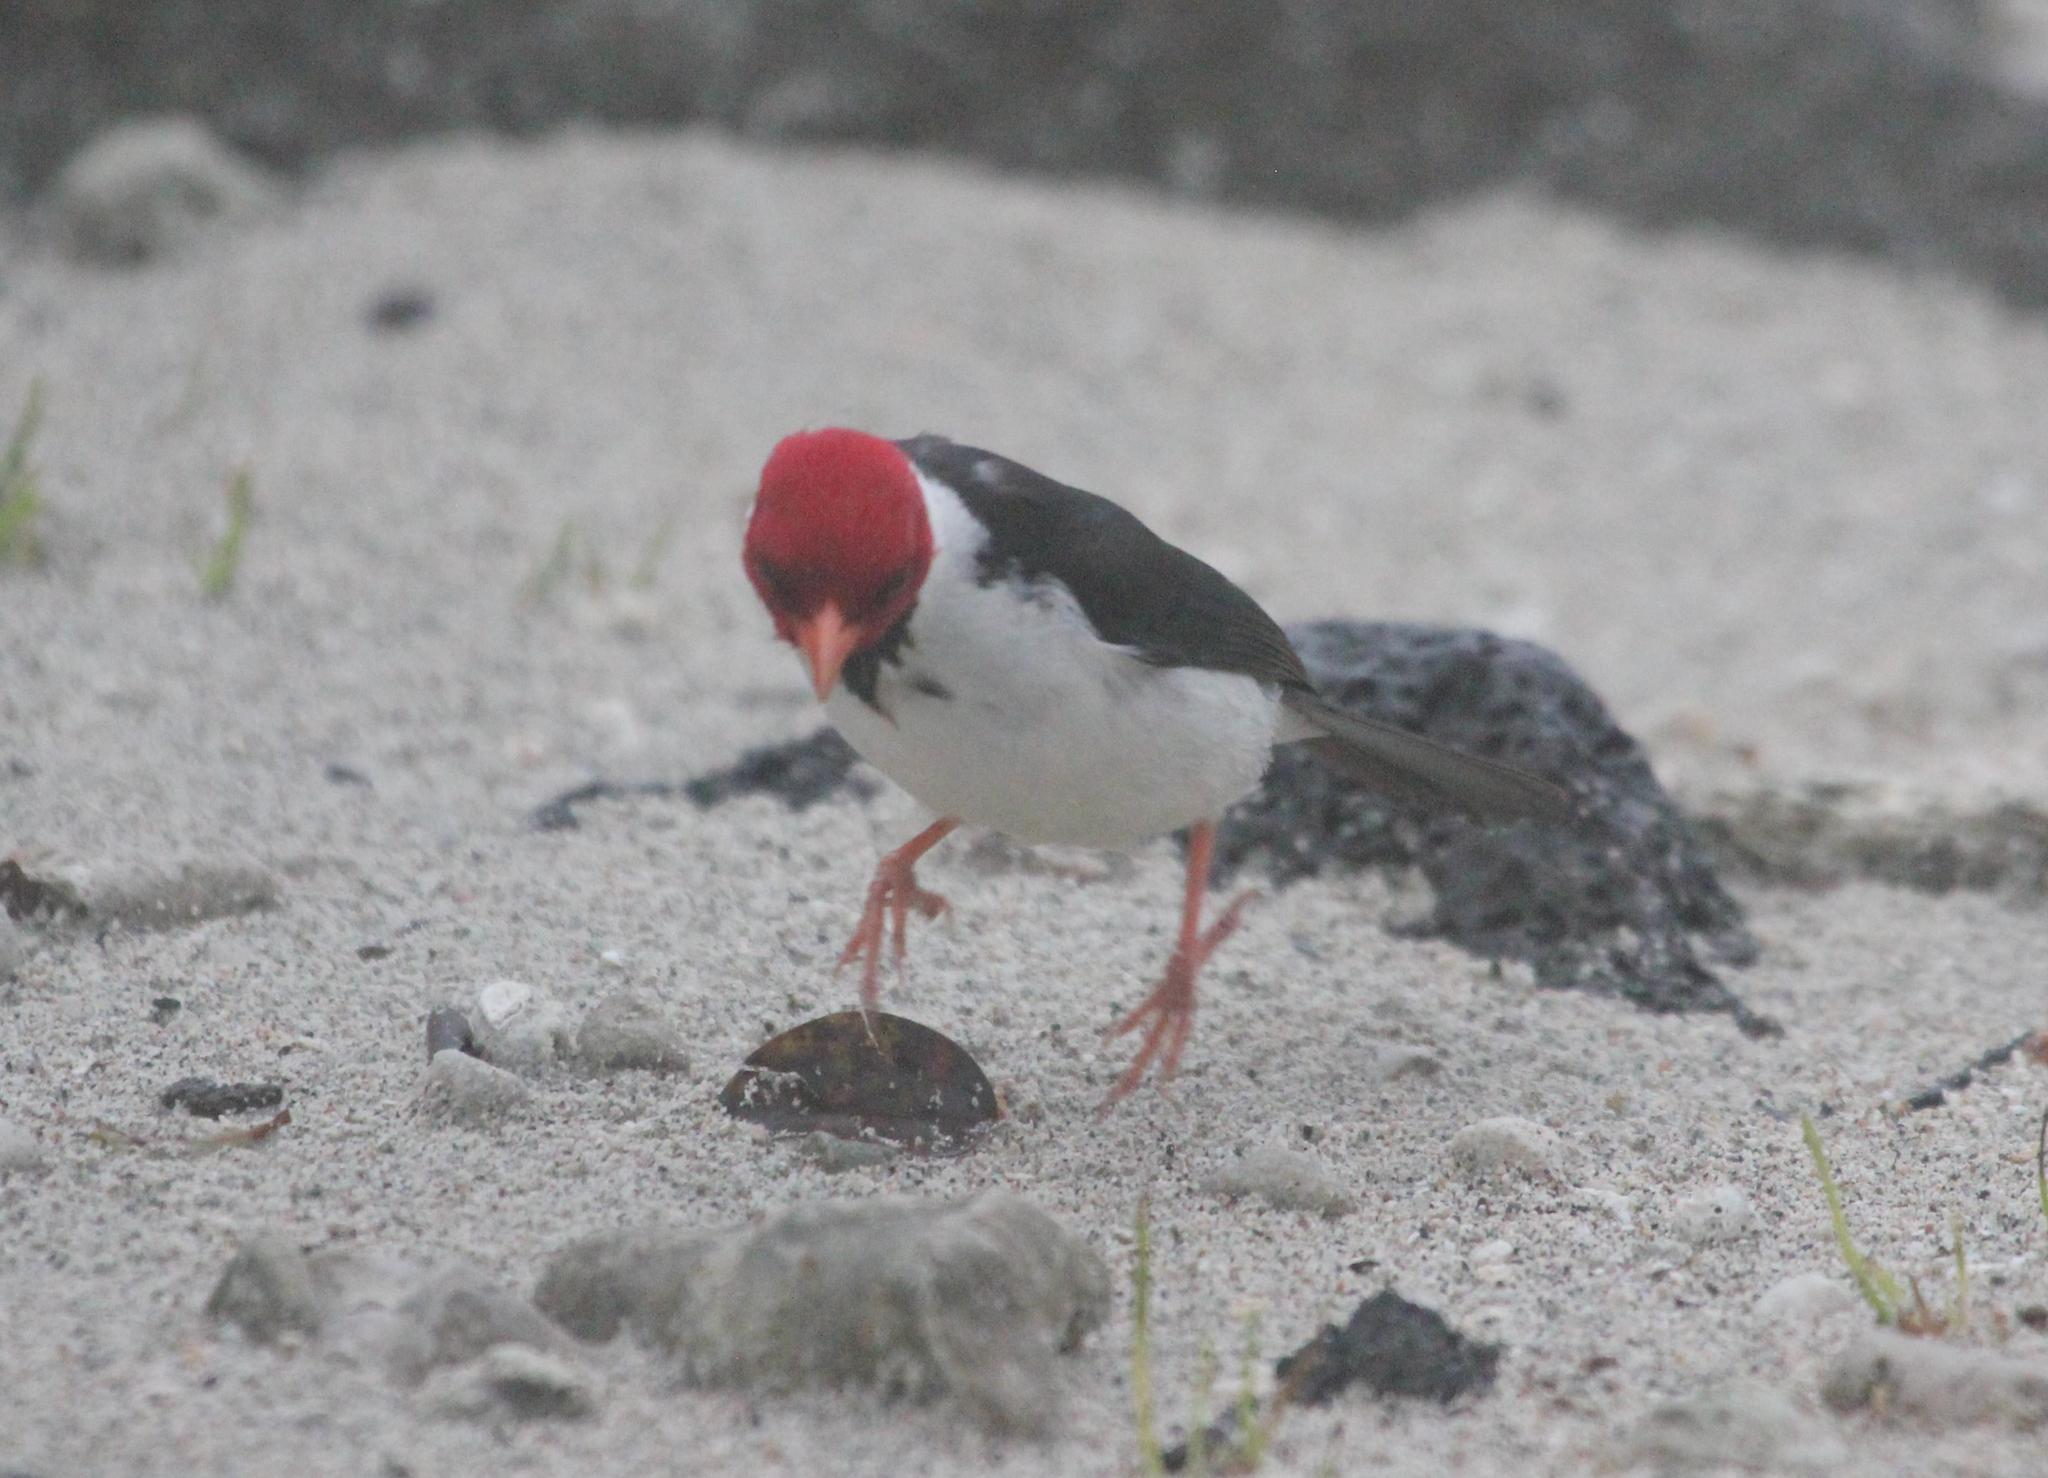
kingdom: Animalia
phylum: Chordata
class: Aves
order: Passeriformes
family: Thraupidae
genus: Paroaria
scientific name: Paroaria capitata
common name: Yellow-billed cardinal
